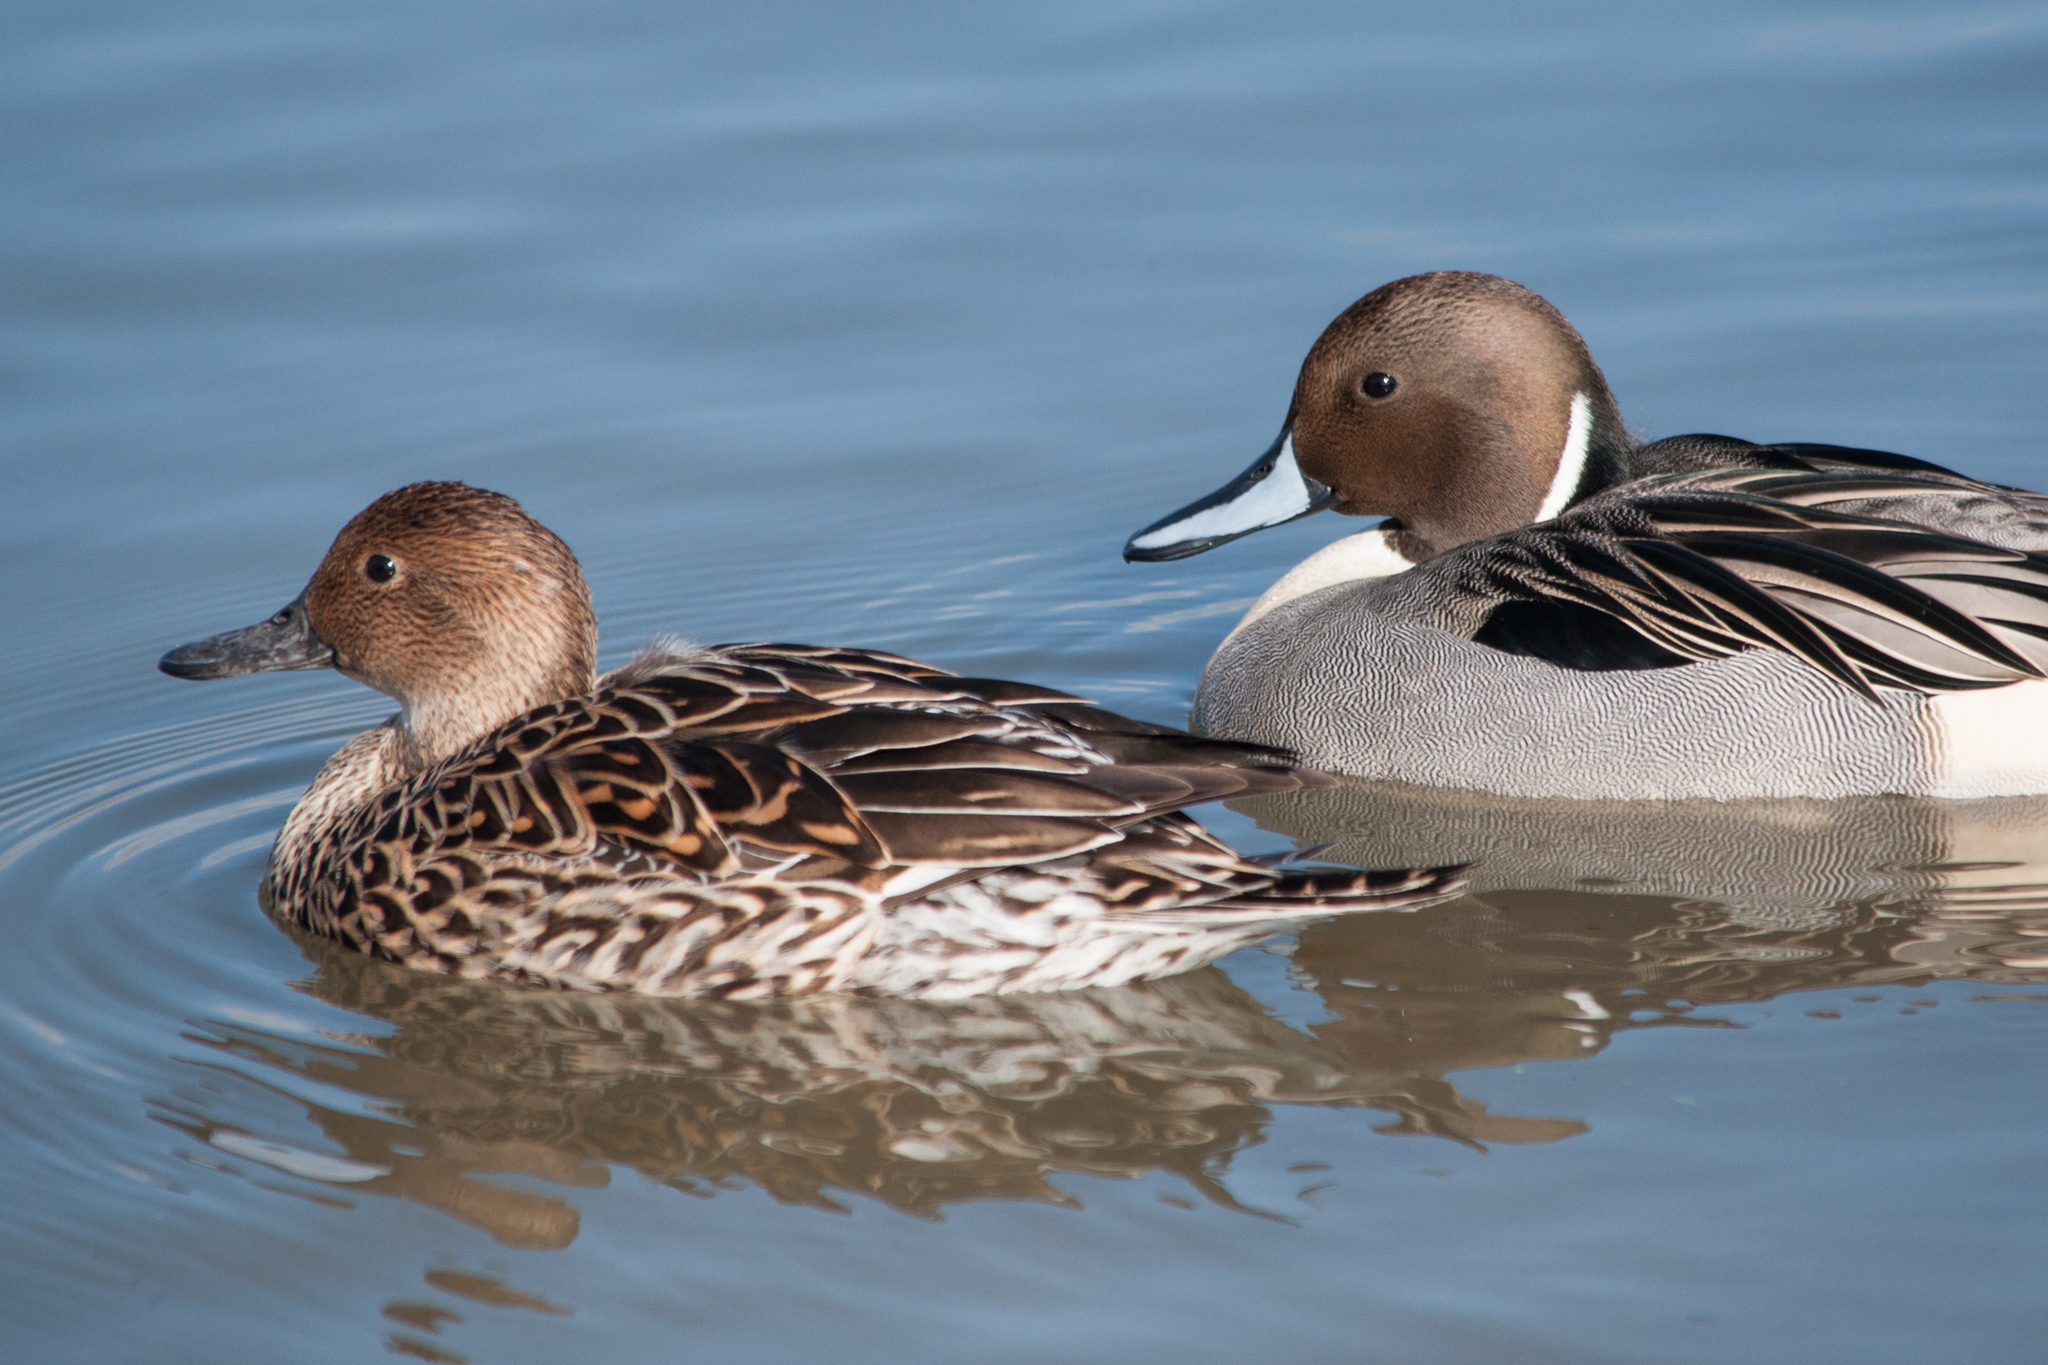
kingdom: Animalia
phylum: Chordata
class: Aves
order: Anseriformes
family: Anatidae
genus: Anas
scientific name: Anas acuta
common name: Northern pintail
